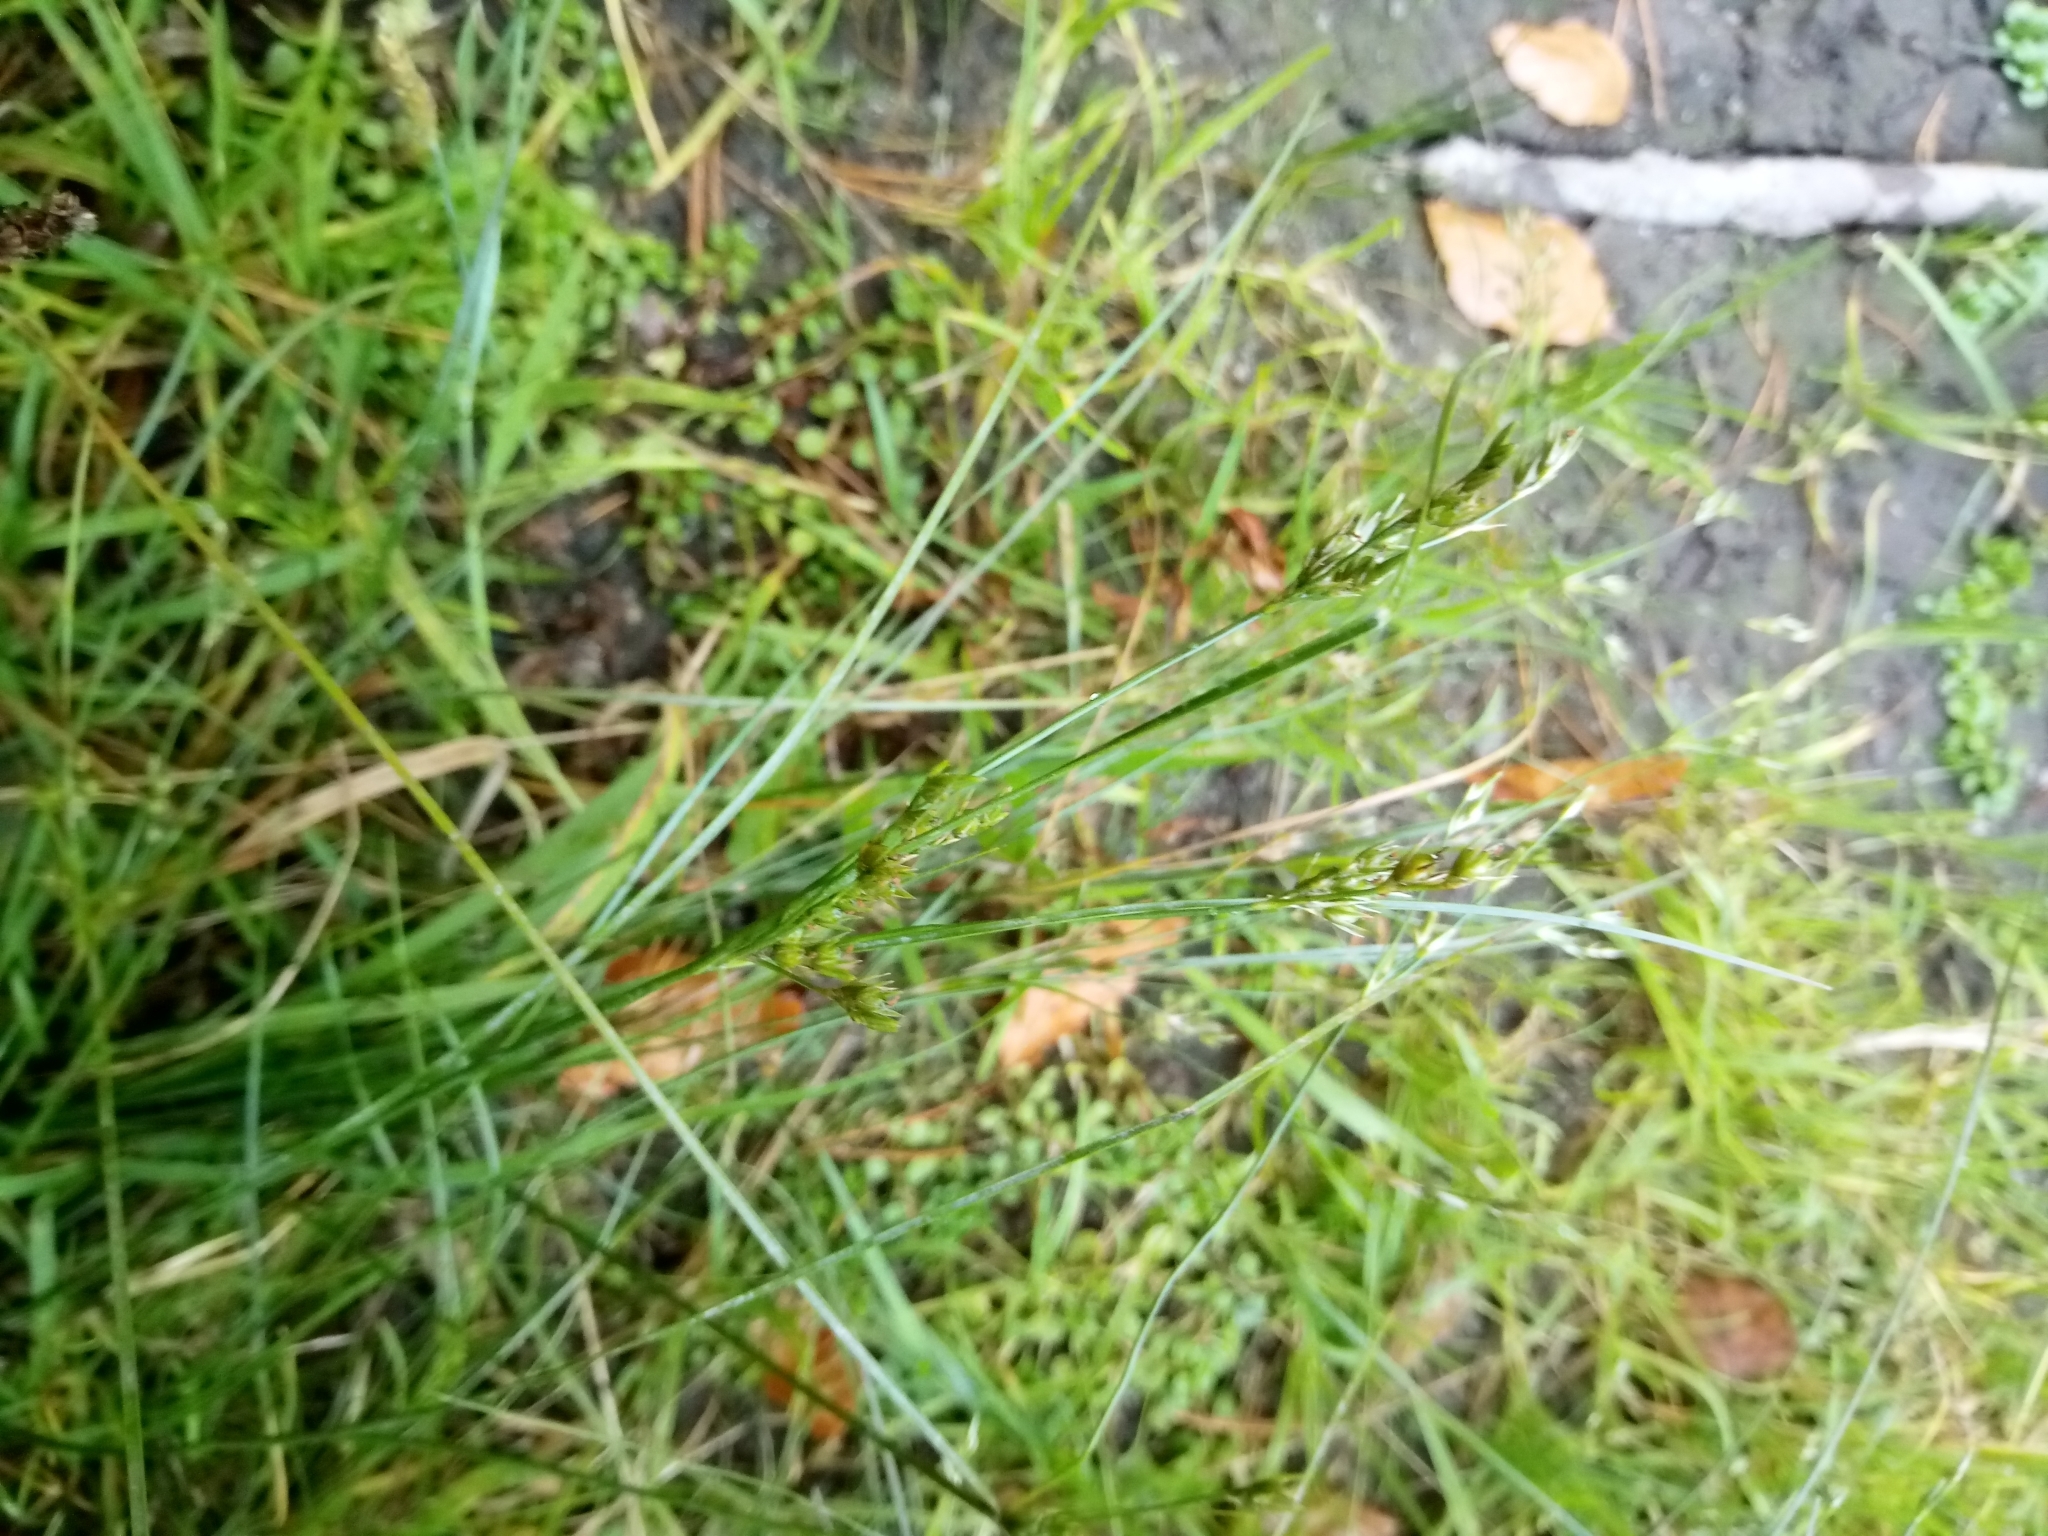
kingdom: Plantae
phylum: Tracheophyta
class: Liliopsida
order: Poales
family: Juncaceae
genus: Juncus
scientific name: Juncus tenuis
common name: Slender rush
